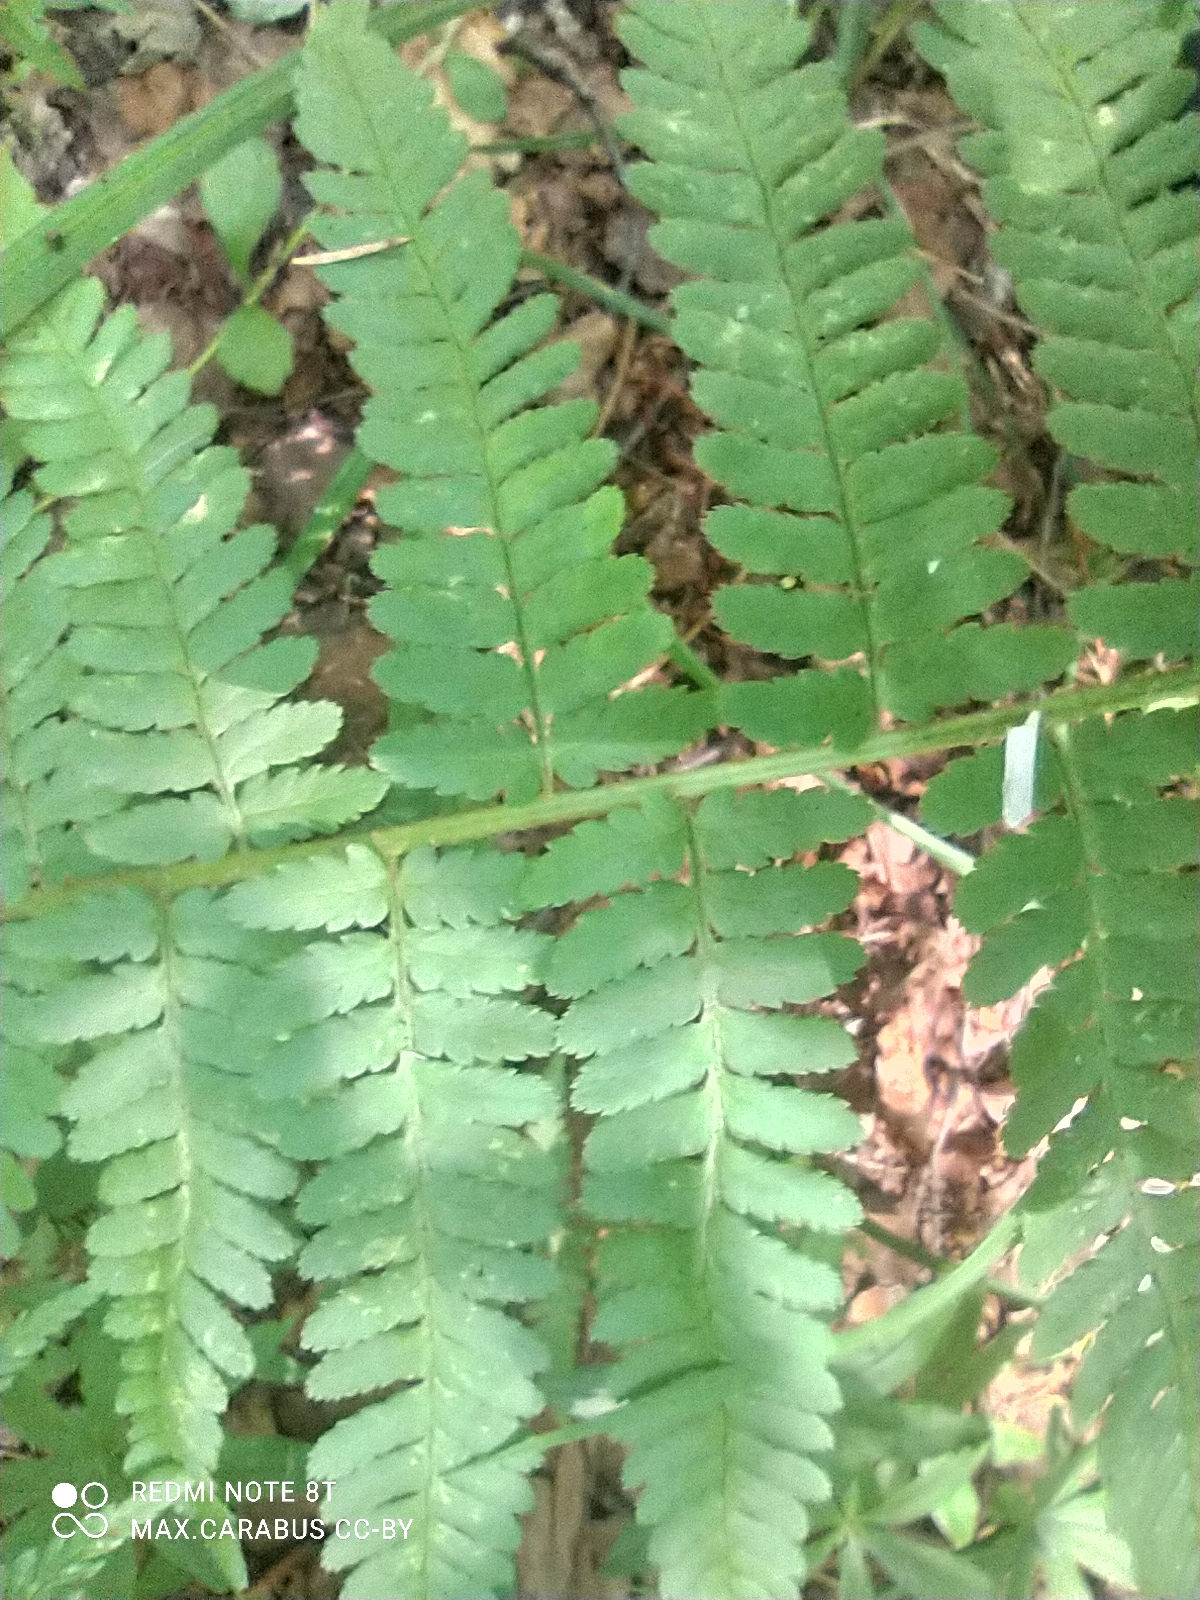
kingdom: Plantae
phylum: Tracheophyta
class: Polypodiopsida
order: Polypodiales
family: Dryopteridaceae
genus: Dryopteris
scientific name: Dryopteris filix-mas
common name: Male fern
